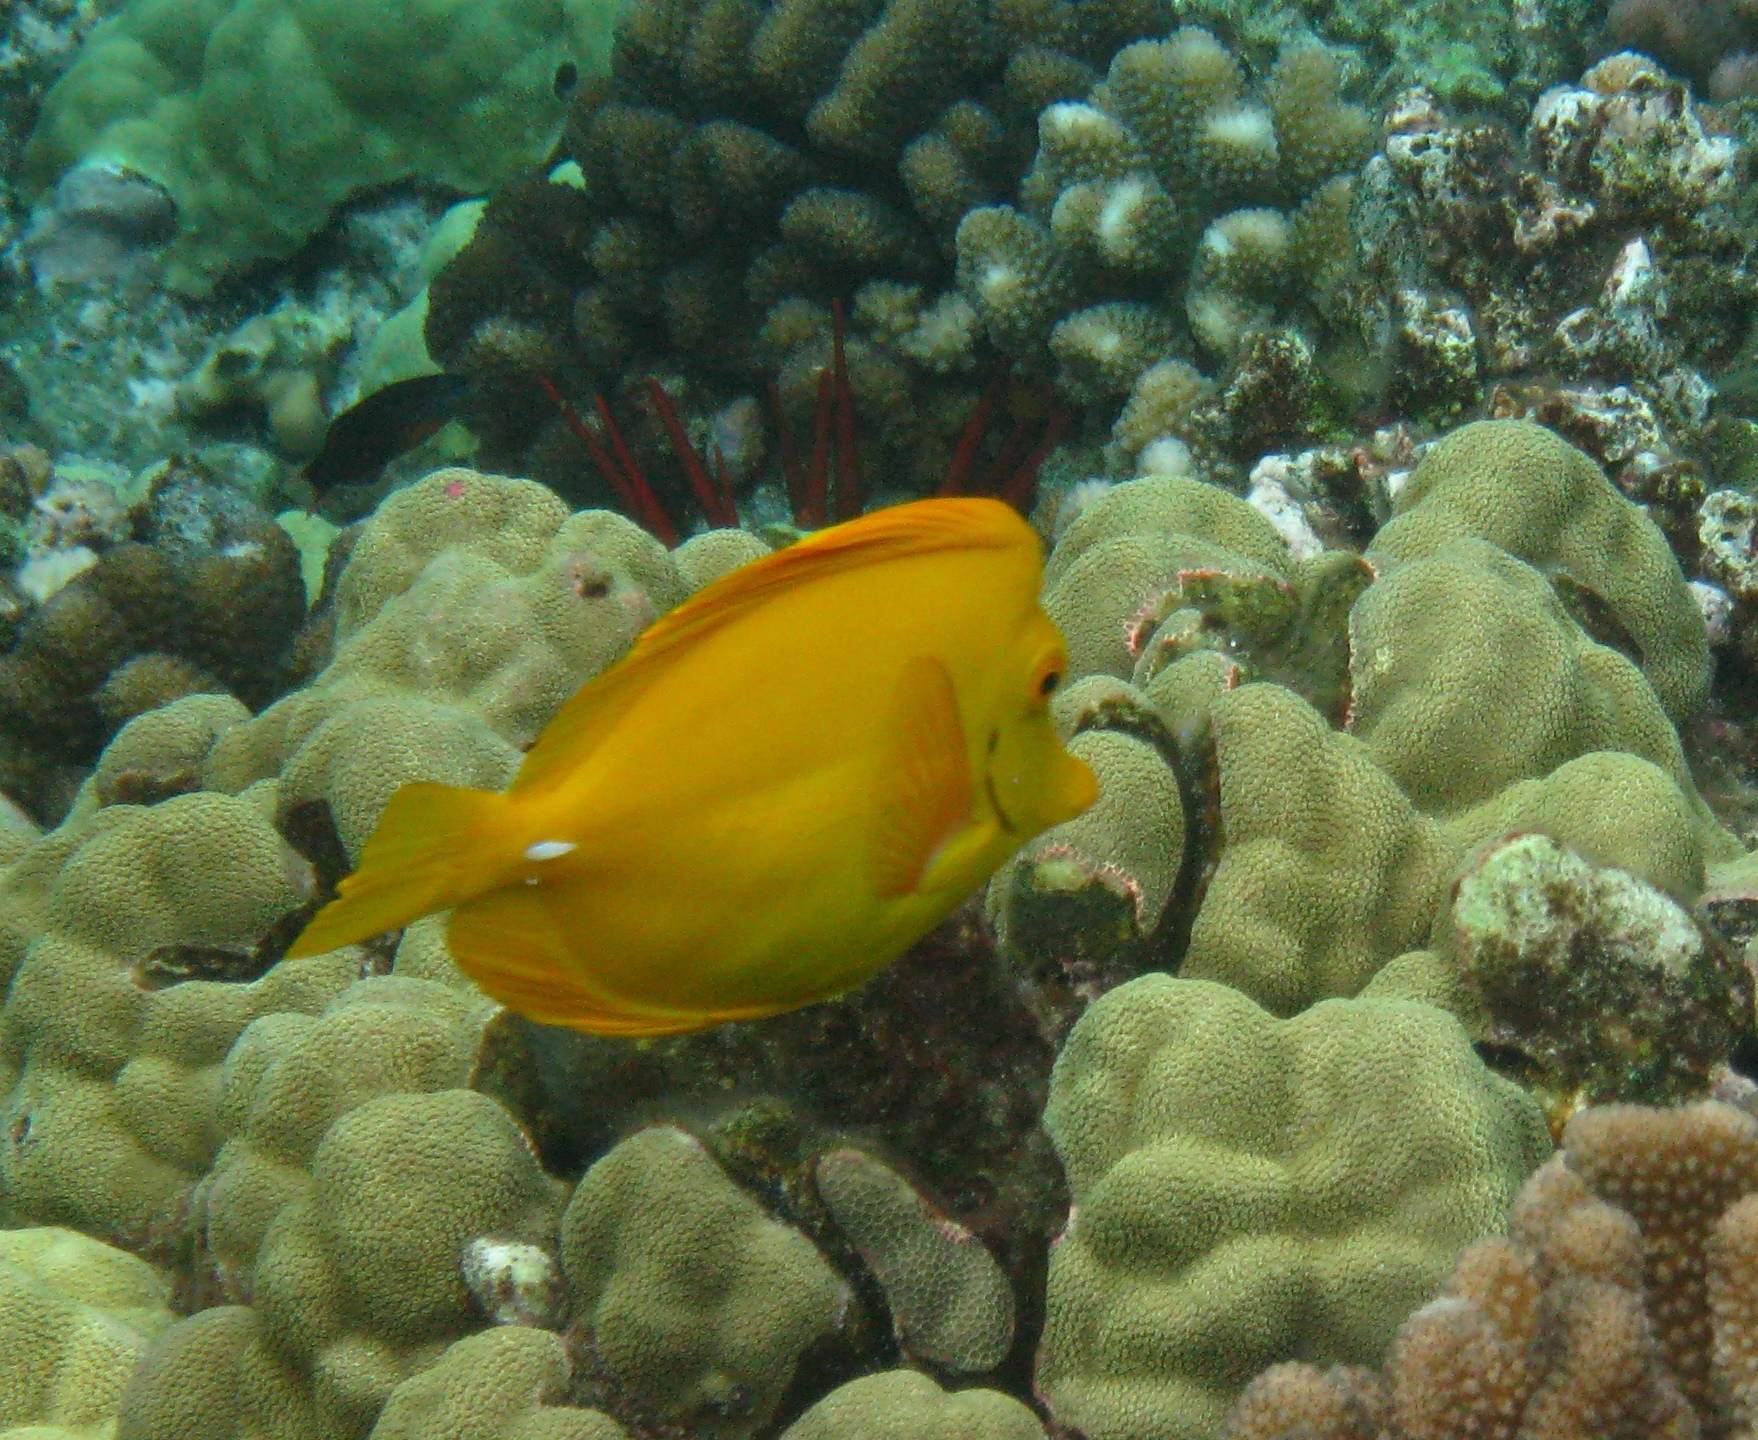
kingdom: Animalia
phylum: Chordata
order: Perciformes
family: Acanthuridae
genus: Zebrasoma
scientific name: Zebrasoma flavescens
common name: Yellow tang
